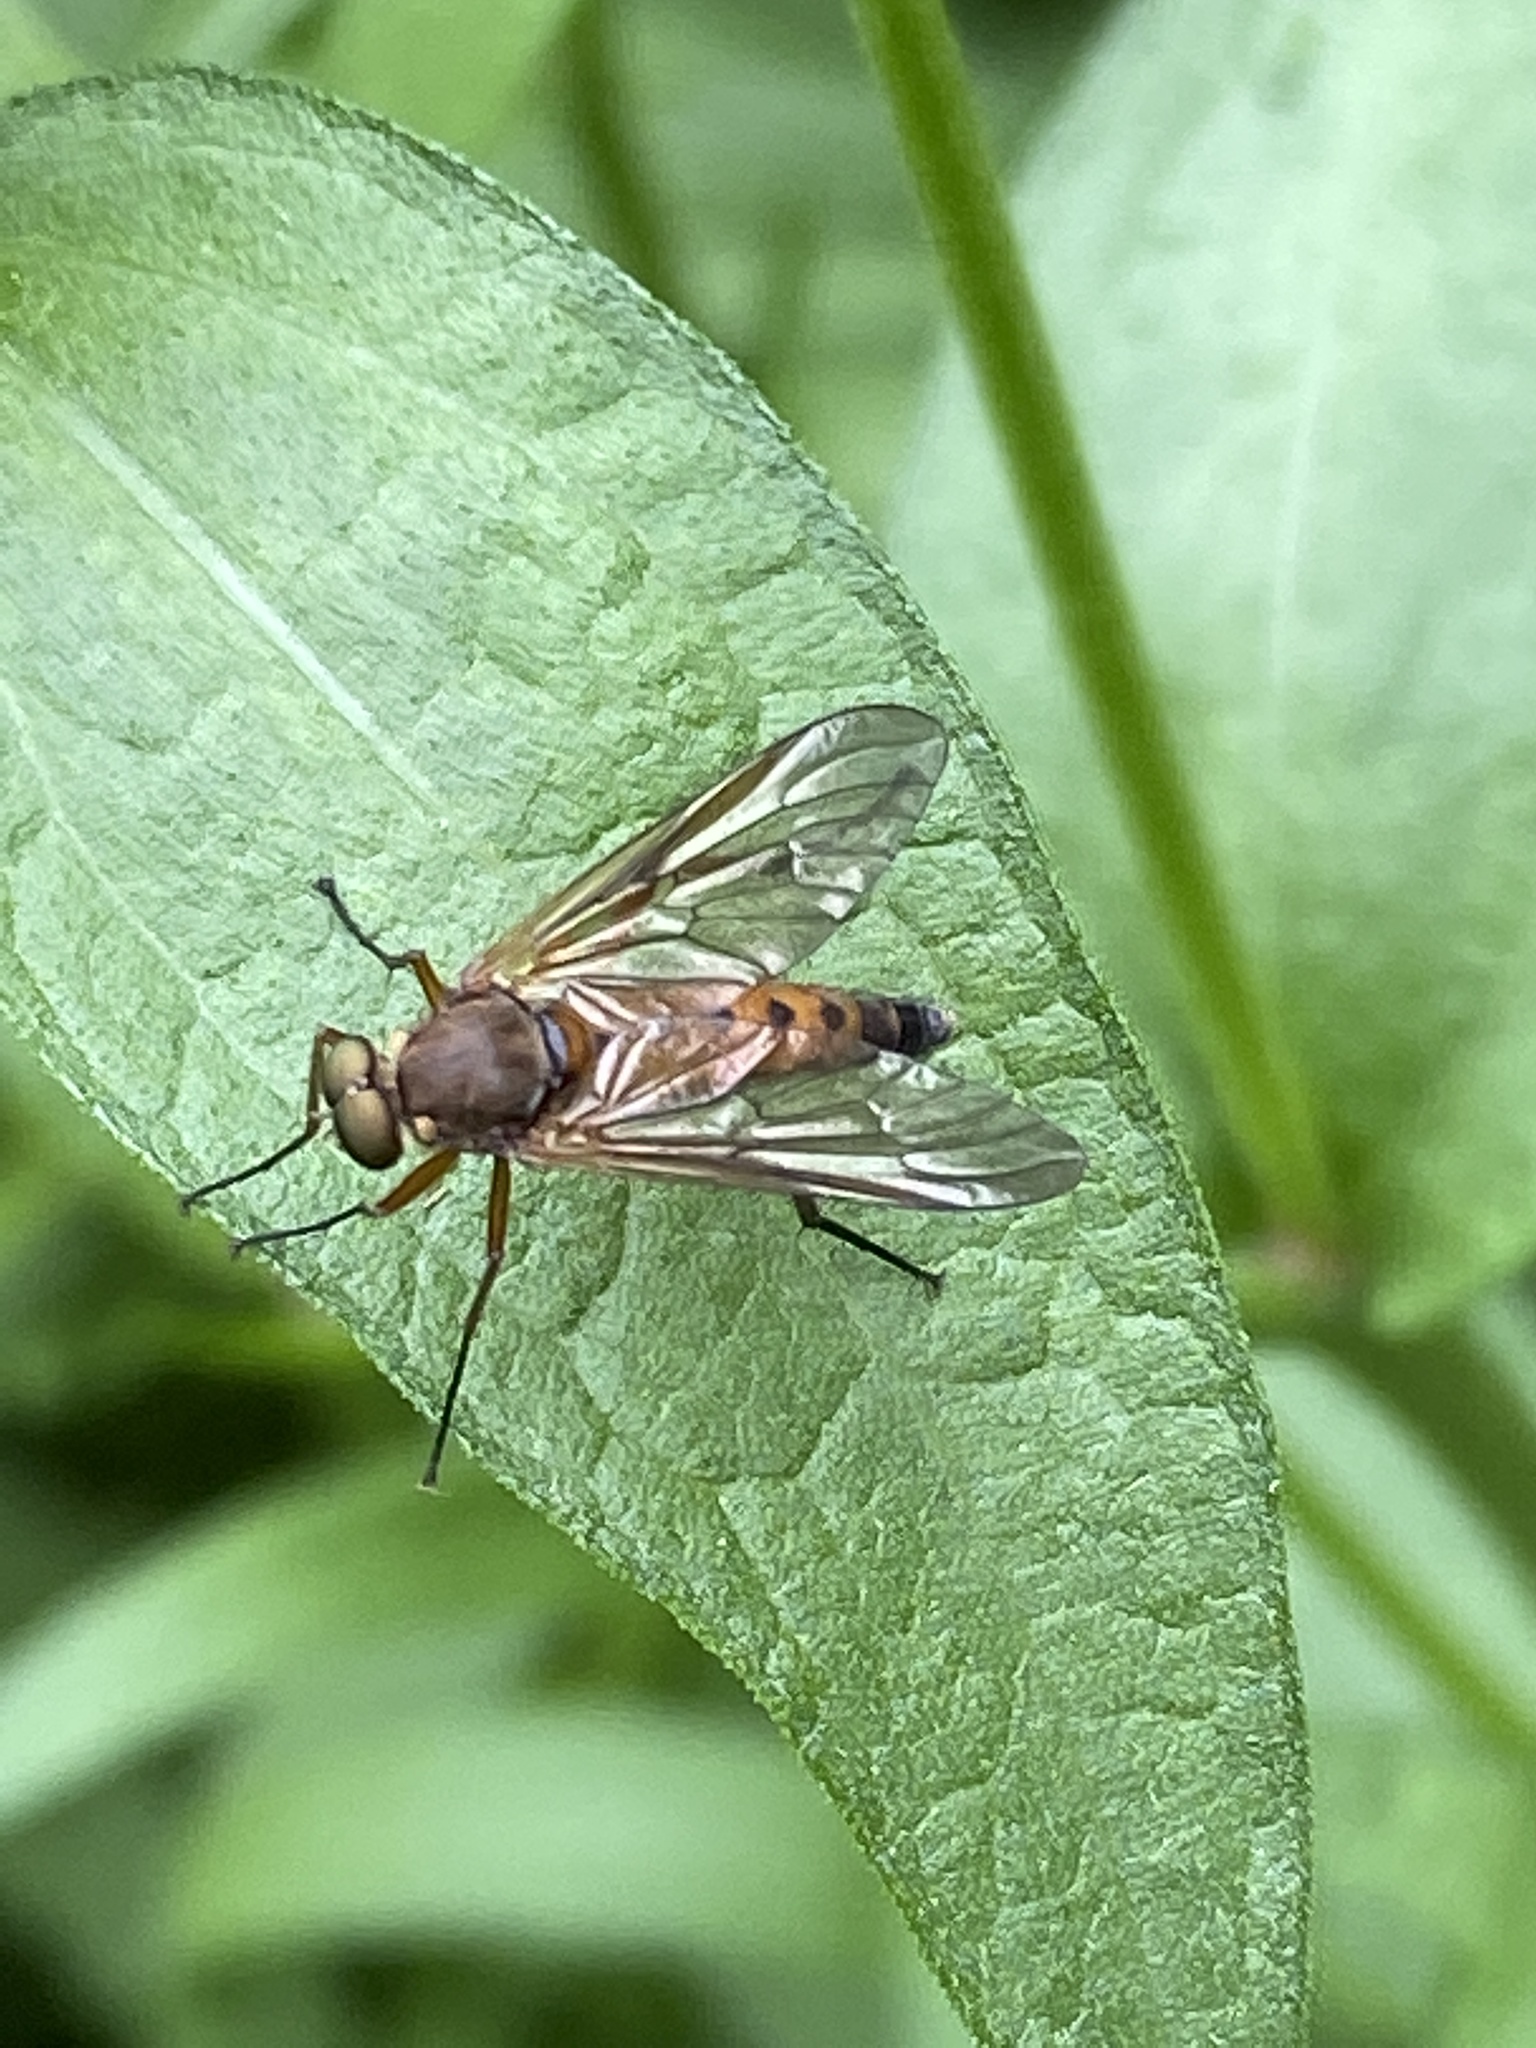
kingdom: Animalia
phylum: Arthropoda
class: Insecta
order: Diptera
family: Rhagionidae
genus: Rhagio
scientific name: Rhagio tringaria
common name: Marsh snipefly
